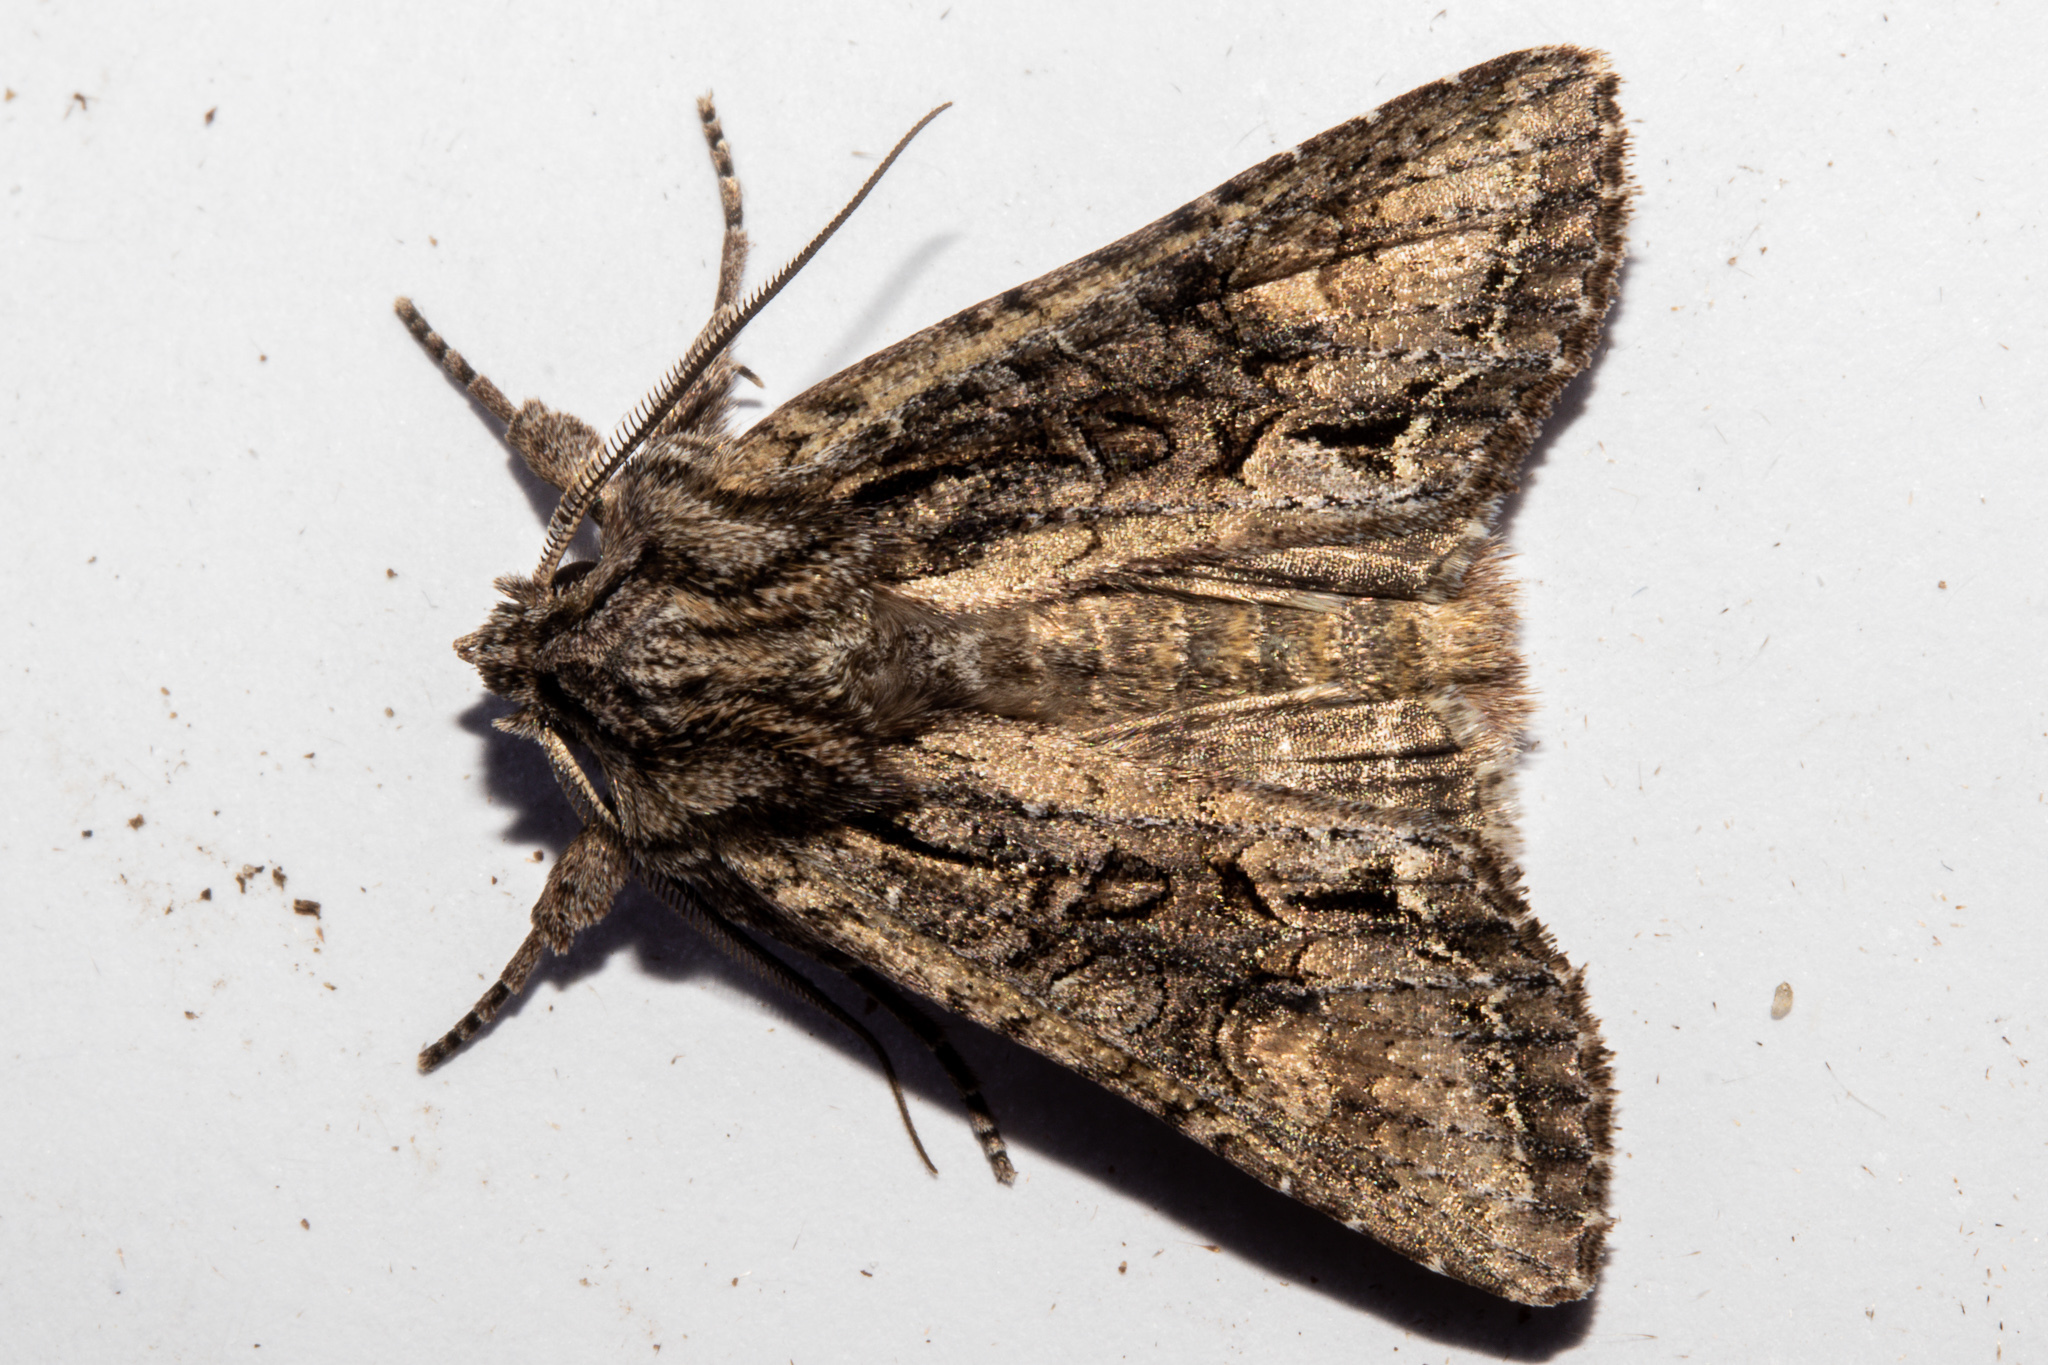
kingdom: Animalia
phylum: Arthropoda
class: Insecta
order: Lepidoptera
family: Noctuidae
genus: Ichneutica
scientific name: Ichneutica mutans
